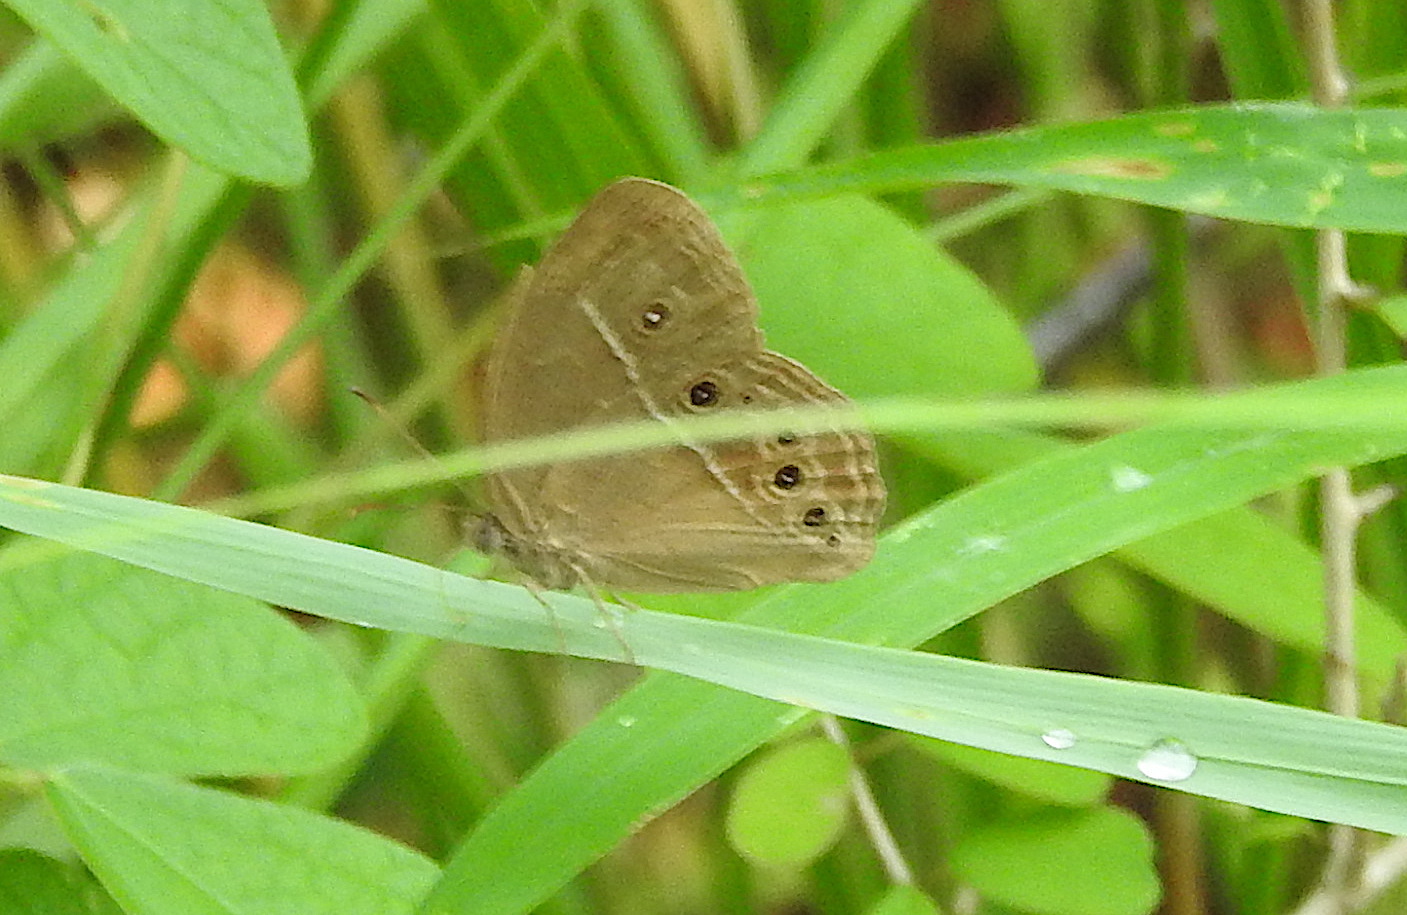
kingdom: Animalia
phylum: Arthropoda
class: Insecta
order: Lepidoptera
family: Nymphalidae
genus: Mycalesis
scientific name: Mycalesis perseus
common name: Dingy bushbrown
